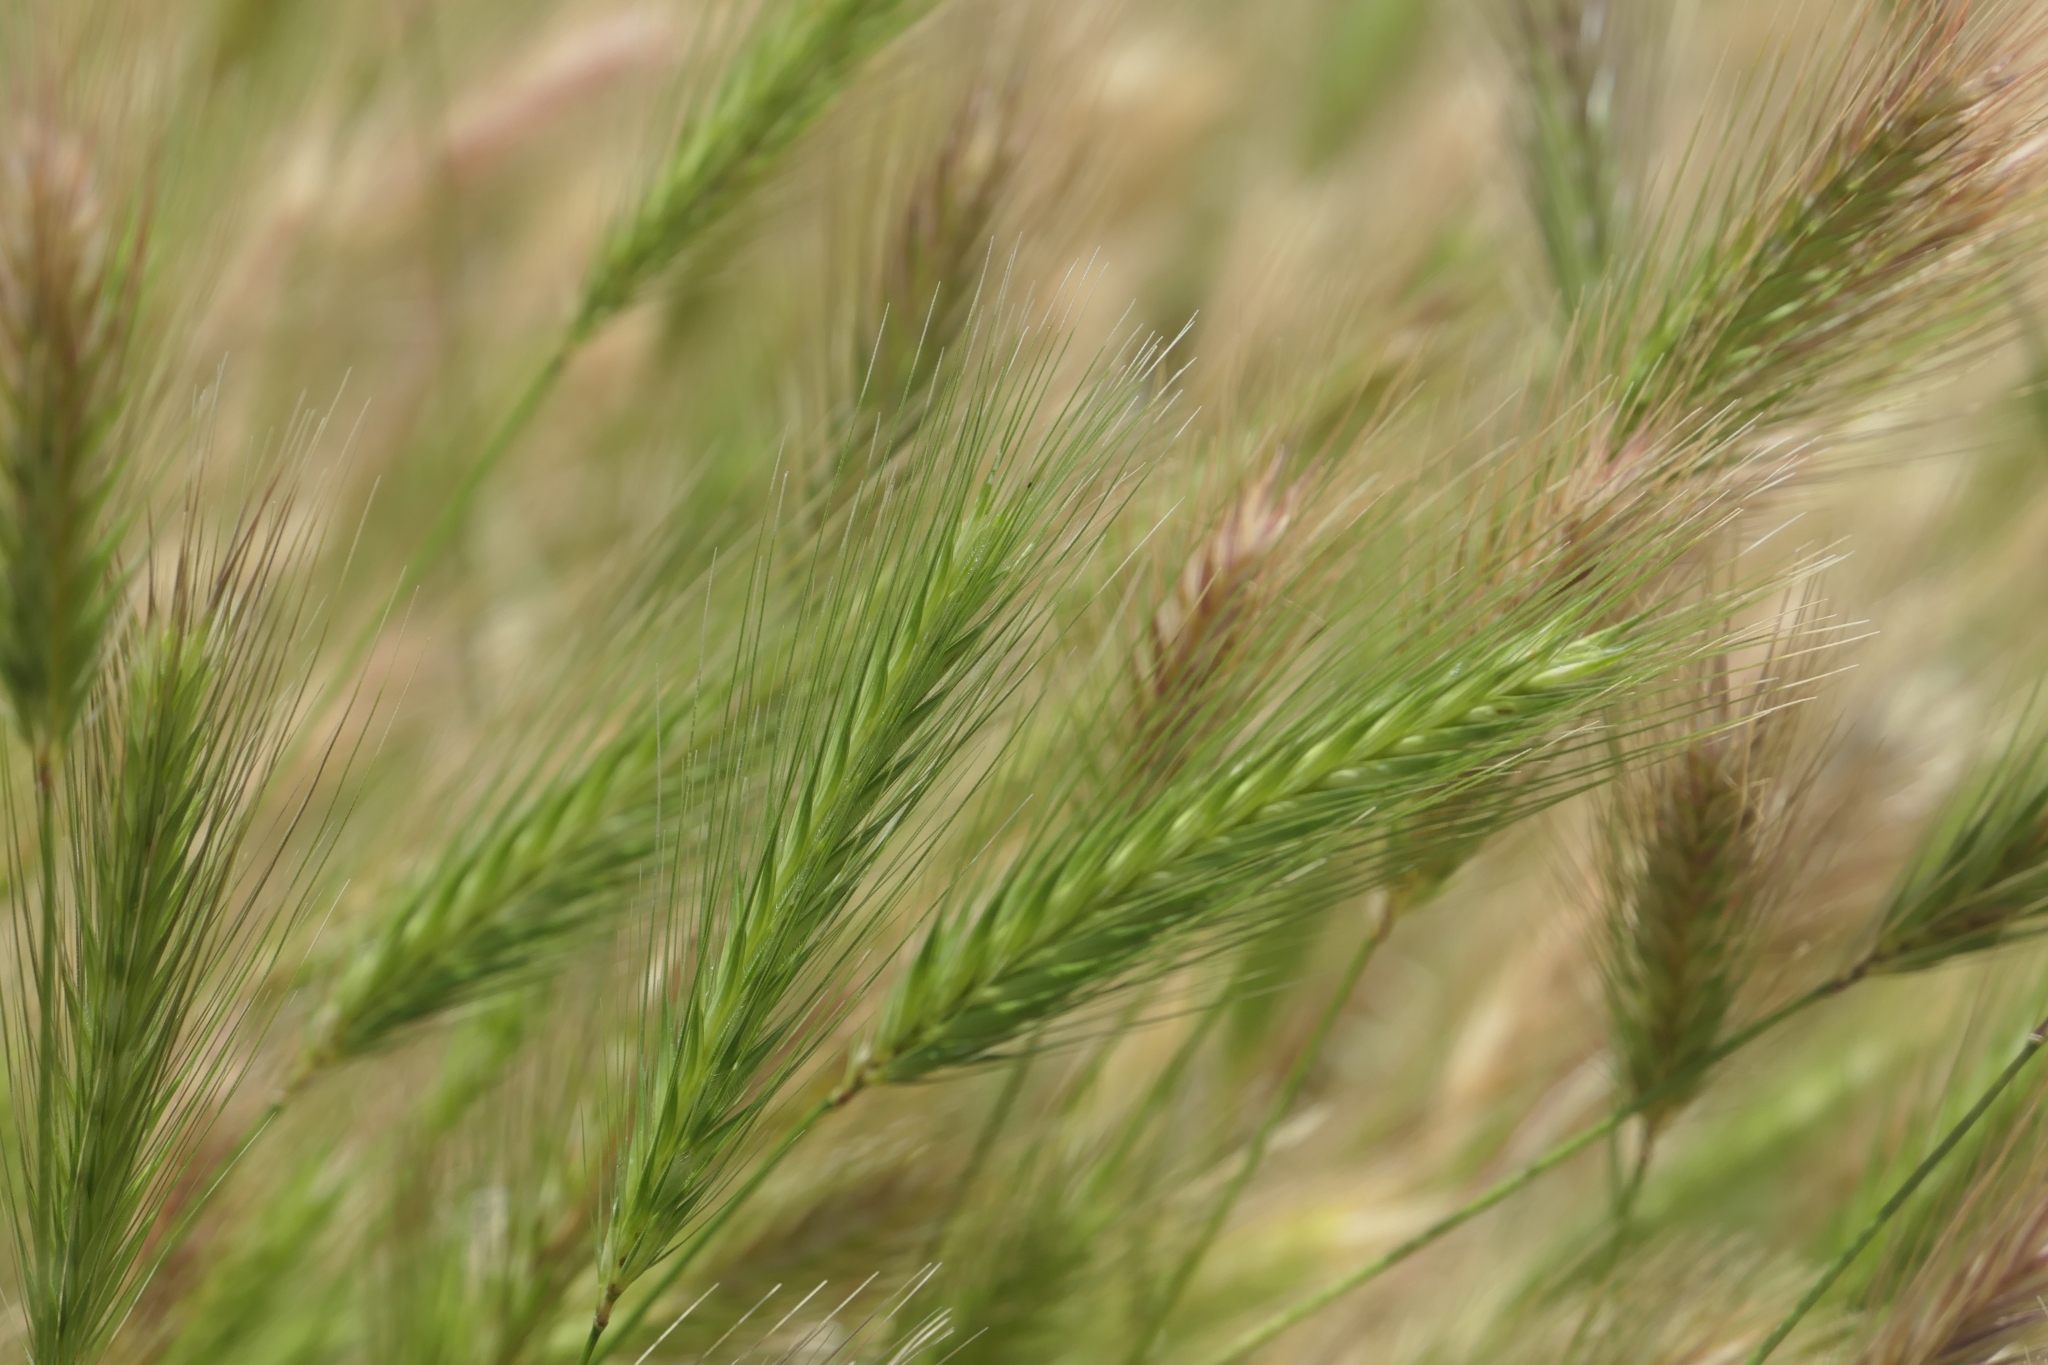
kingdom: Plantae
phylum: Tracheophyta
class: Liliopsida
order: Poales
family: Poaceae
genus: Hordeum
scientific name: Hordeum murinum
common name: Wall barley
